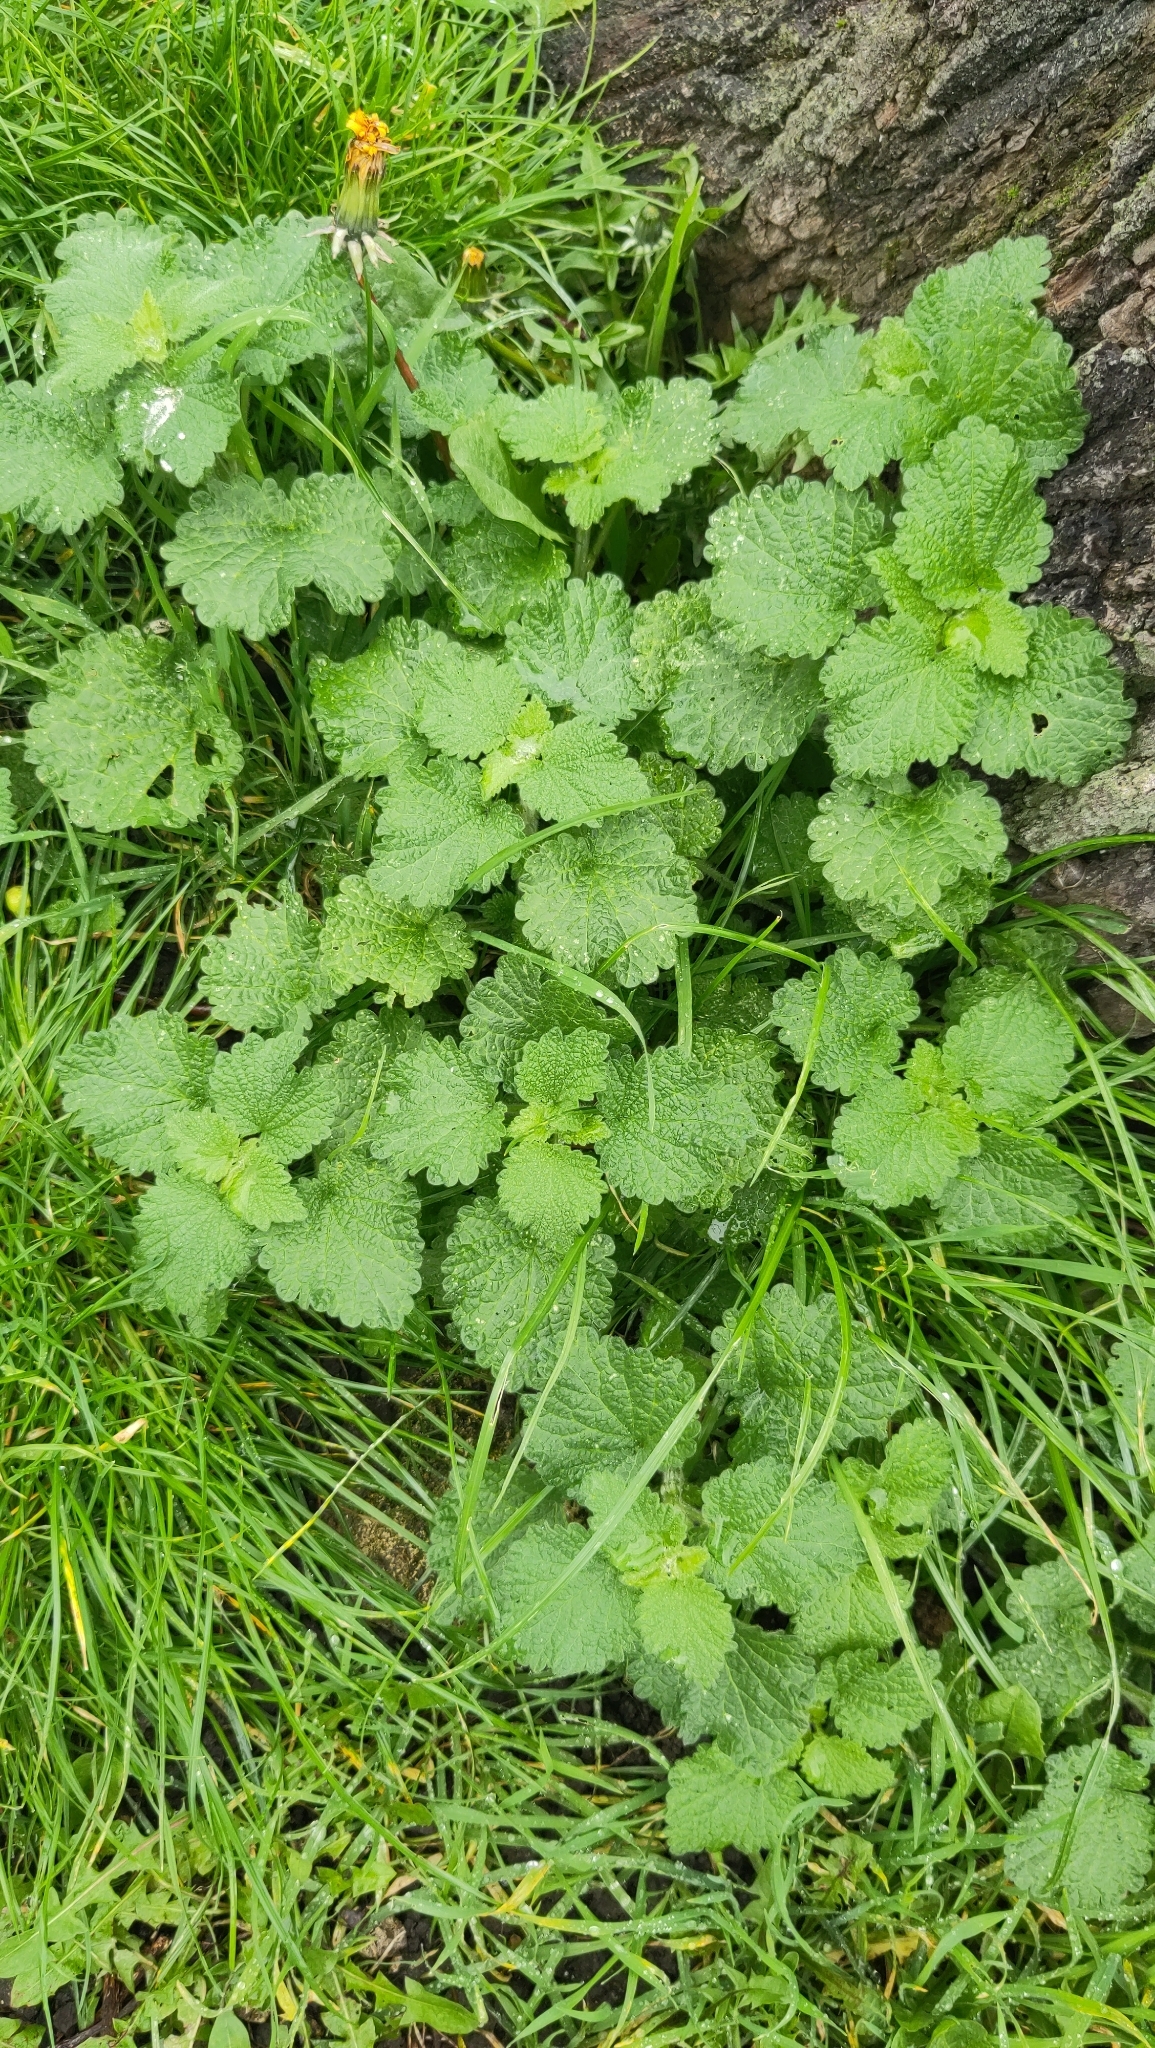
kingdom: Plantae
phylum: Tracheophyta
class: Magnoliopsida
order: Lamiales
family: Lamiaceae
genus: Ballota
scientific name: Ballota nigra
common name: Black horehound
